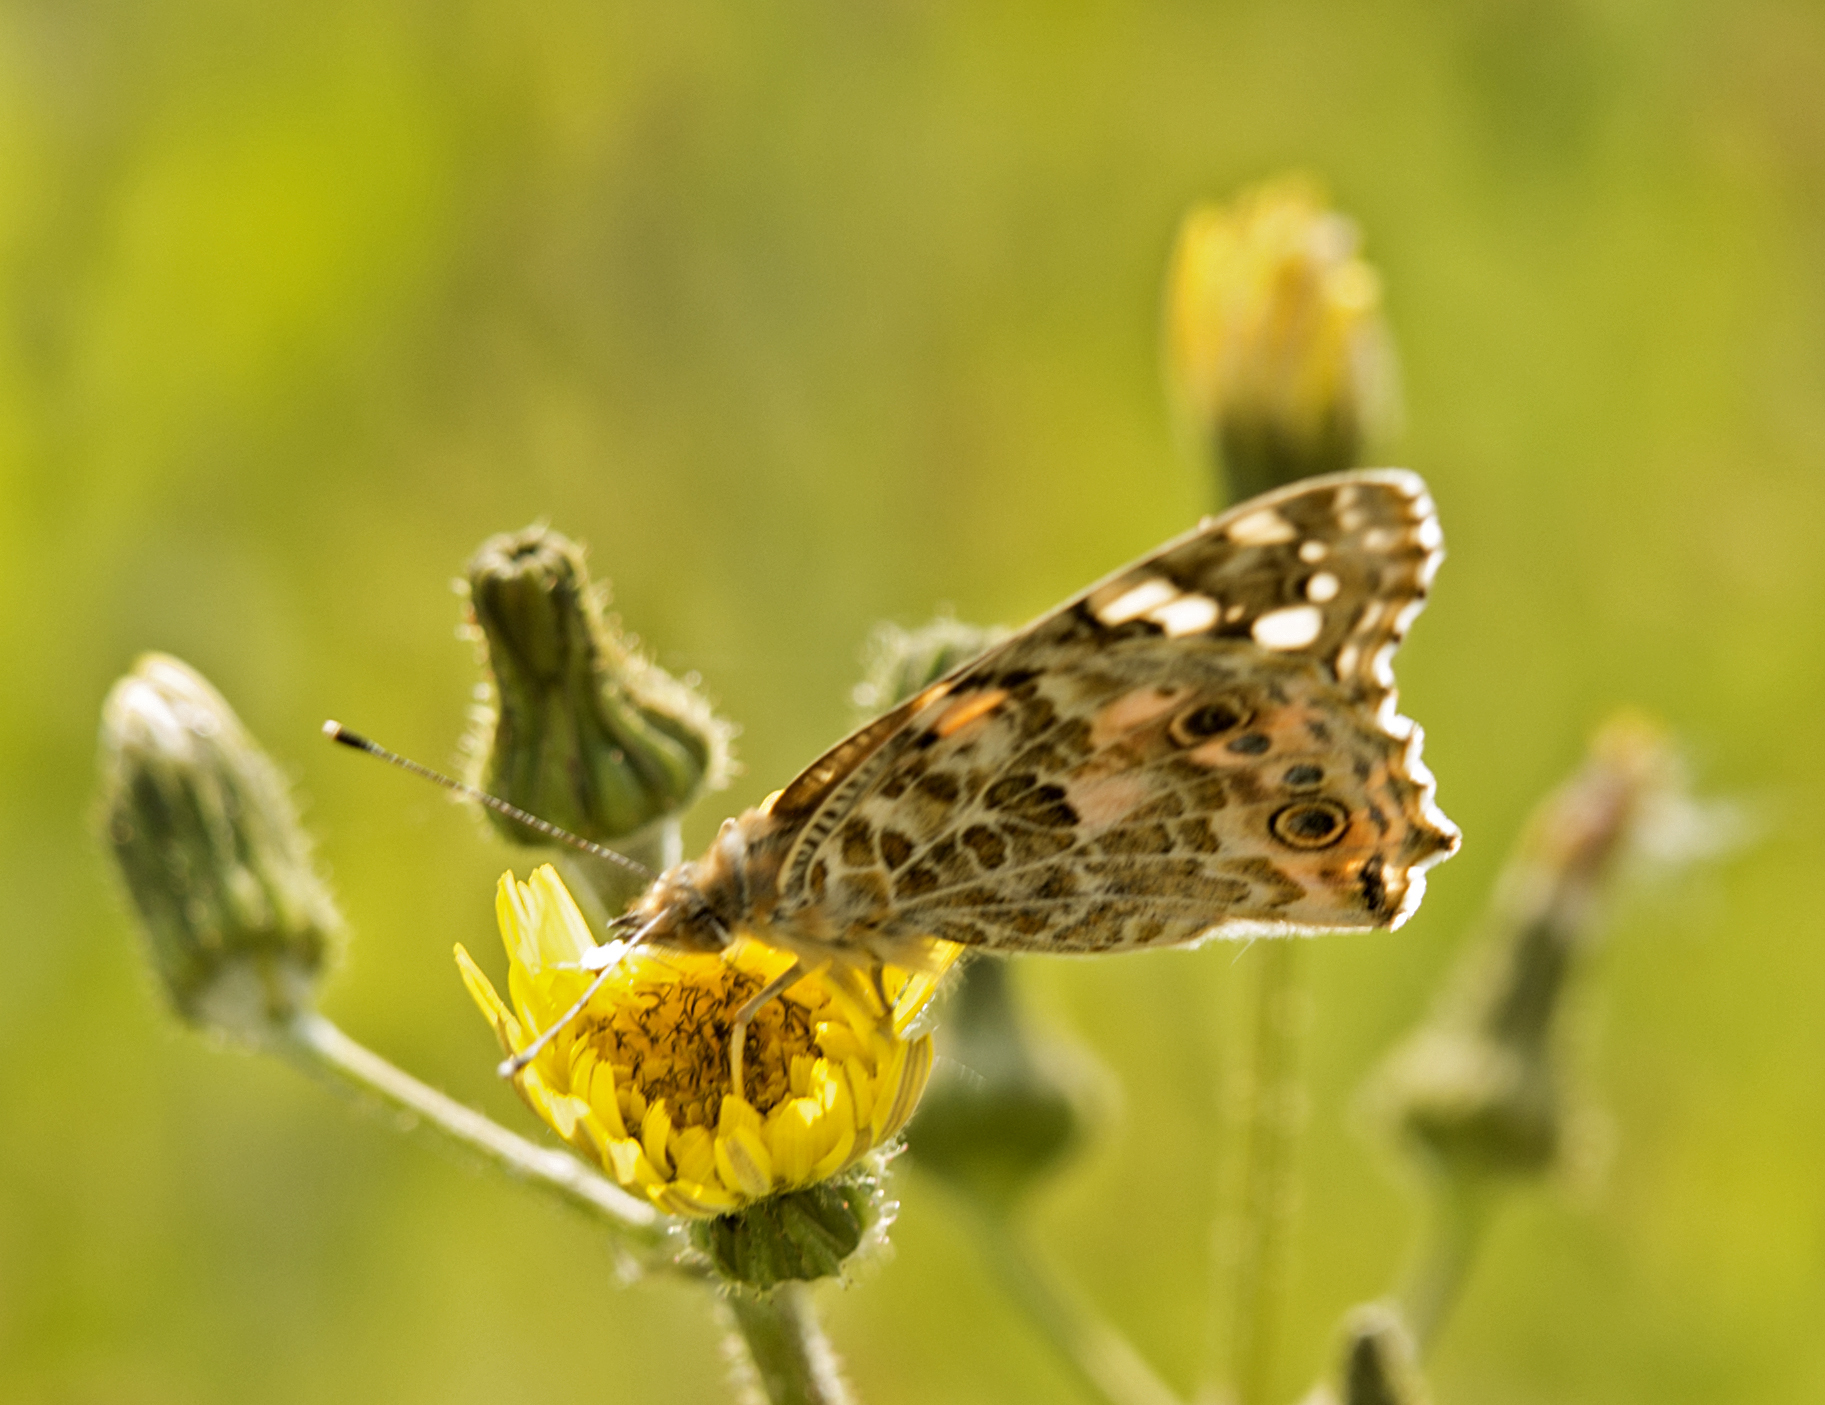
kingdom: Animalia
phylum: Arthropoda
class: Insecta
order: Lepidoptera
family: Nymphalidae
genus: Vanessa
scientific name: Vanessa cardui
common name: Painted lady
